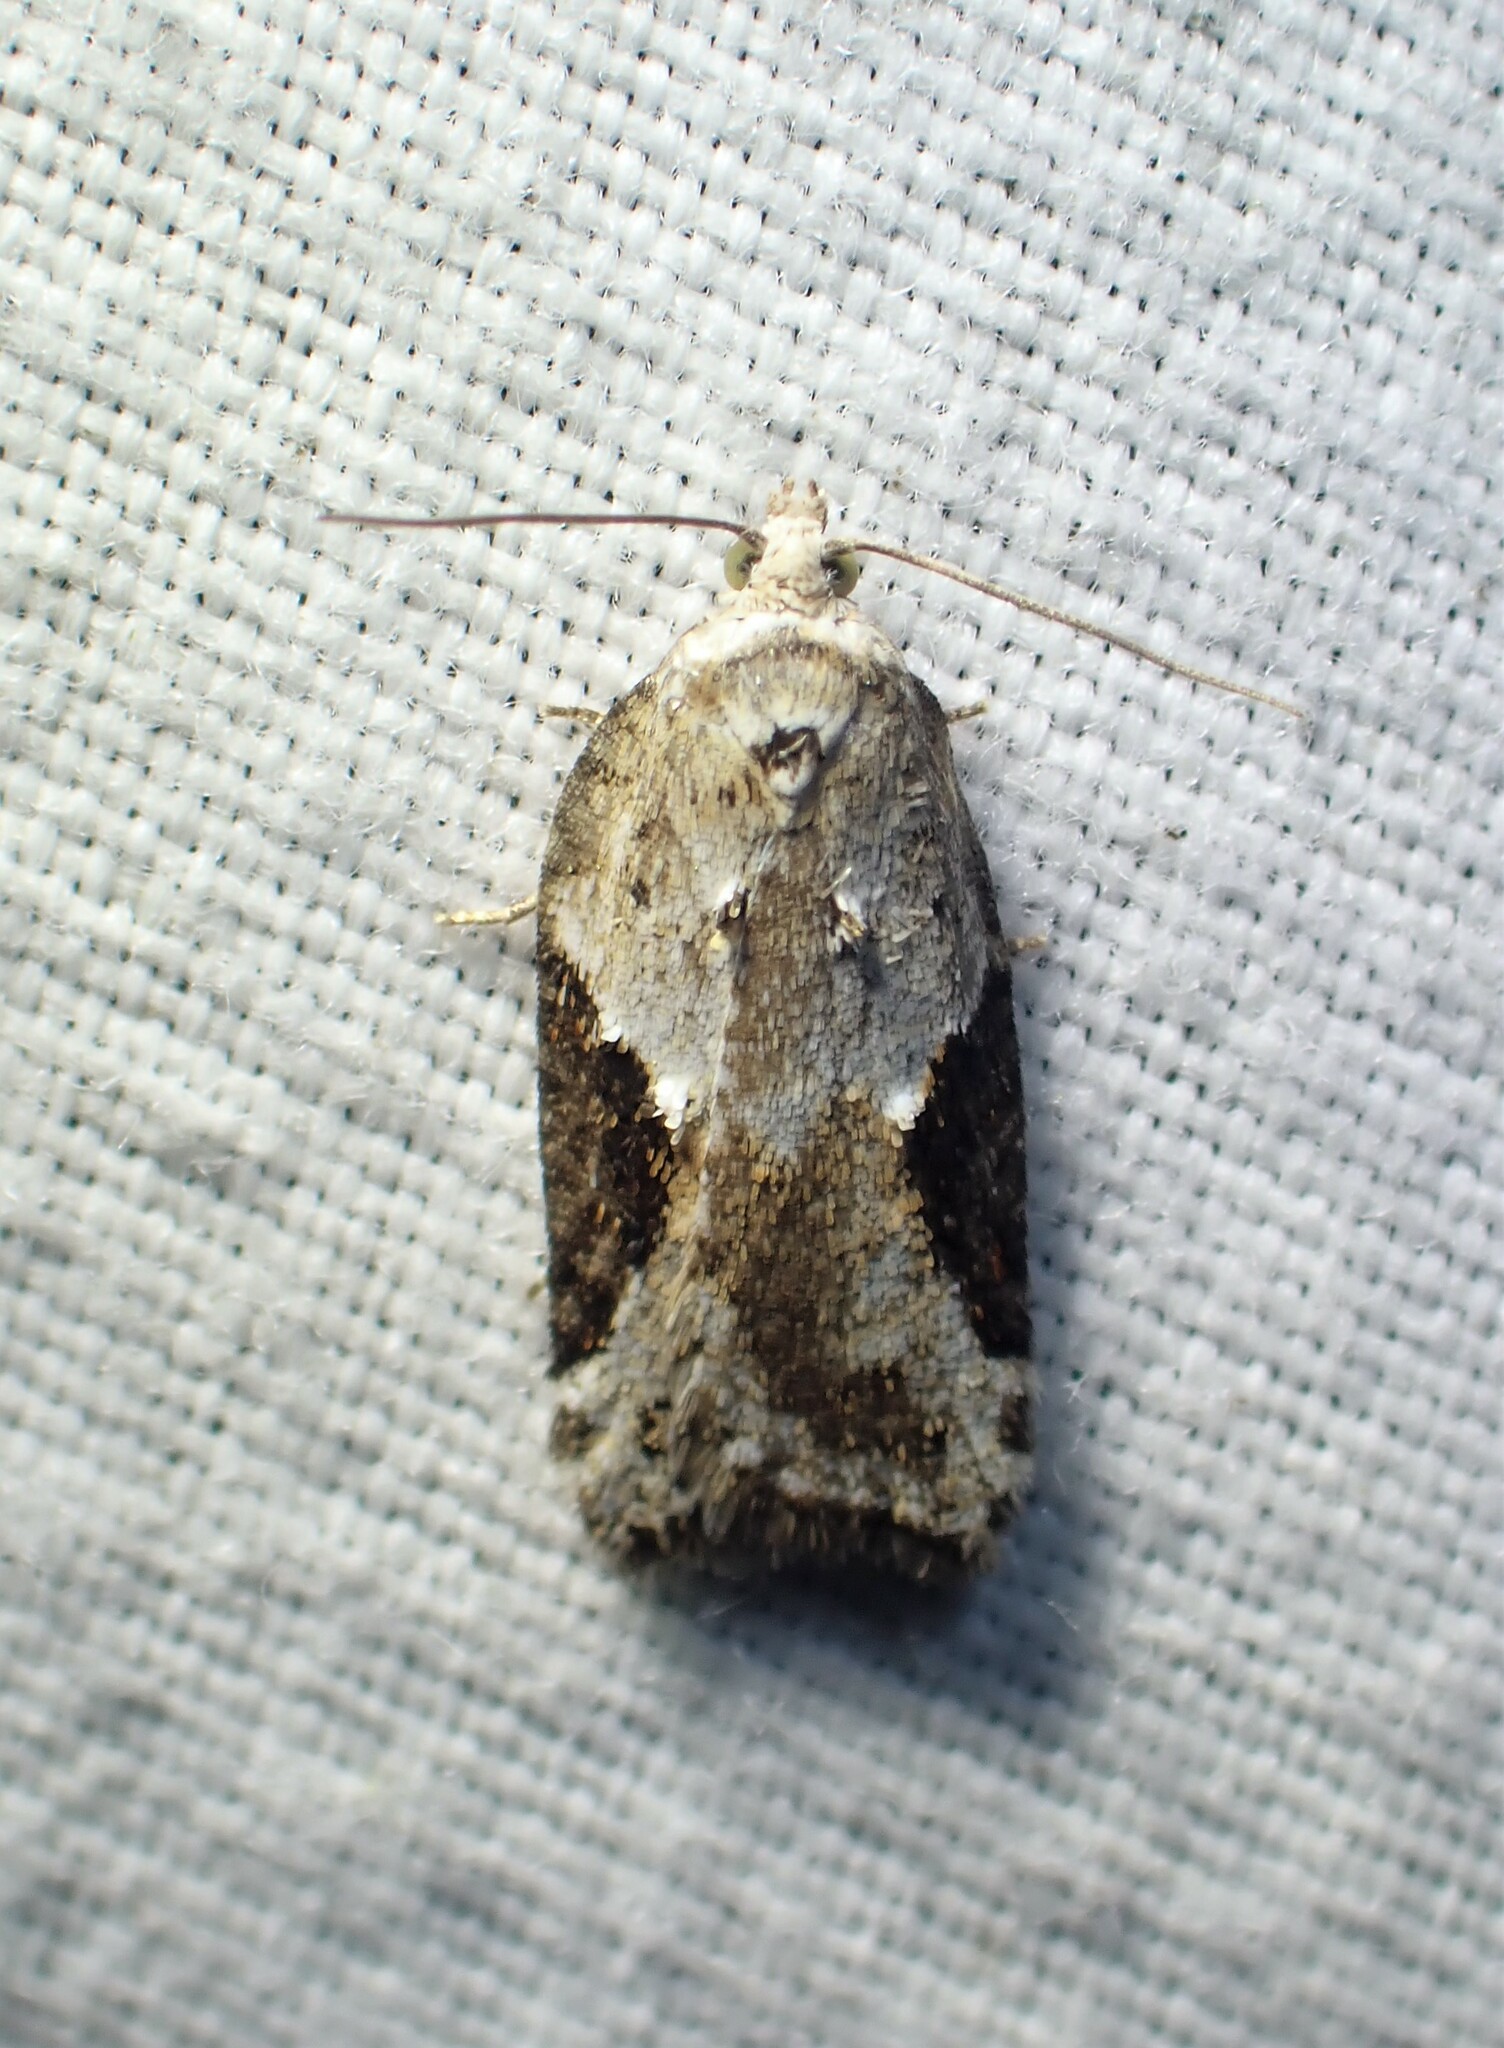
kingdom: Animalia
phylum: Arthropoda
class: Insecta
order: Lepidoptera
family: Tortricidae
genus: Acleris
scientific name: Acleris forbesana
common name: Forbes' acleris moth
